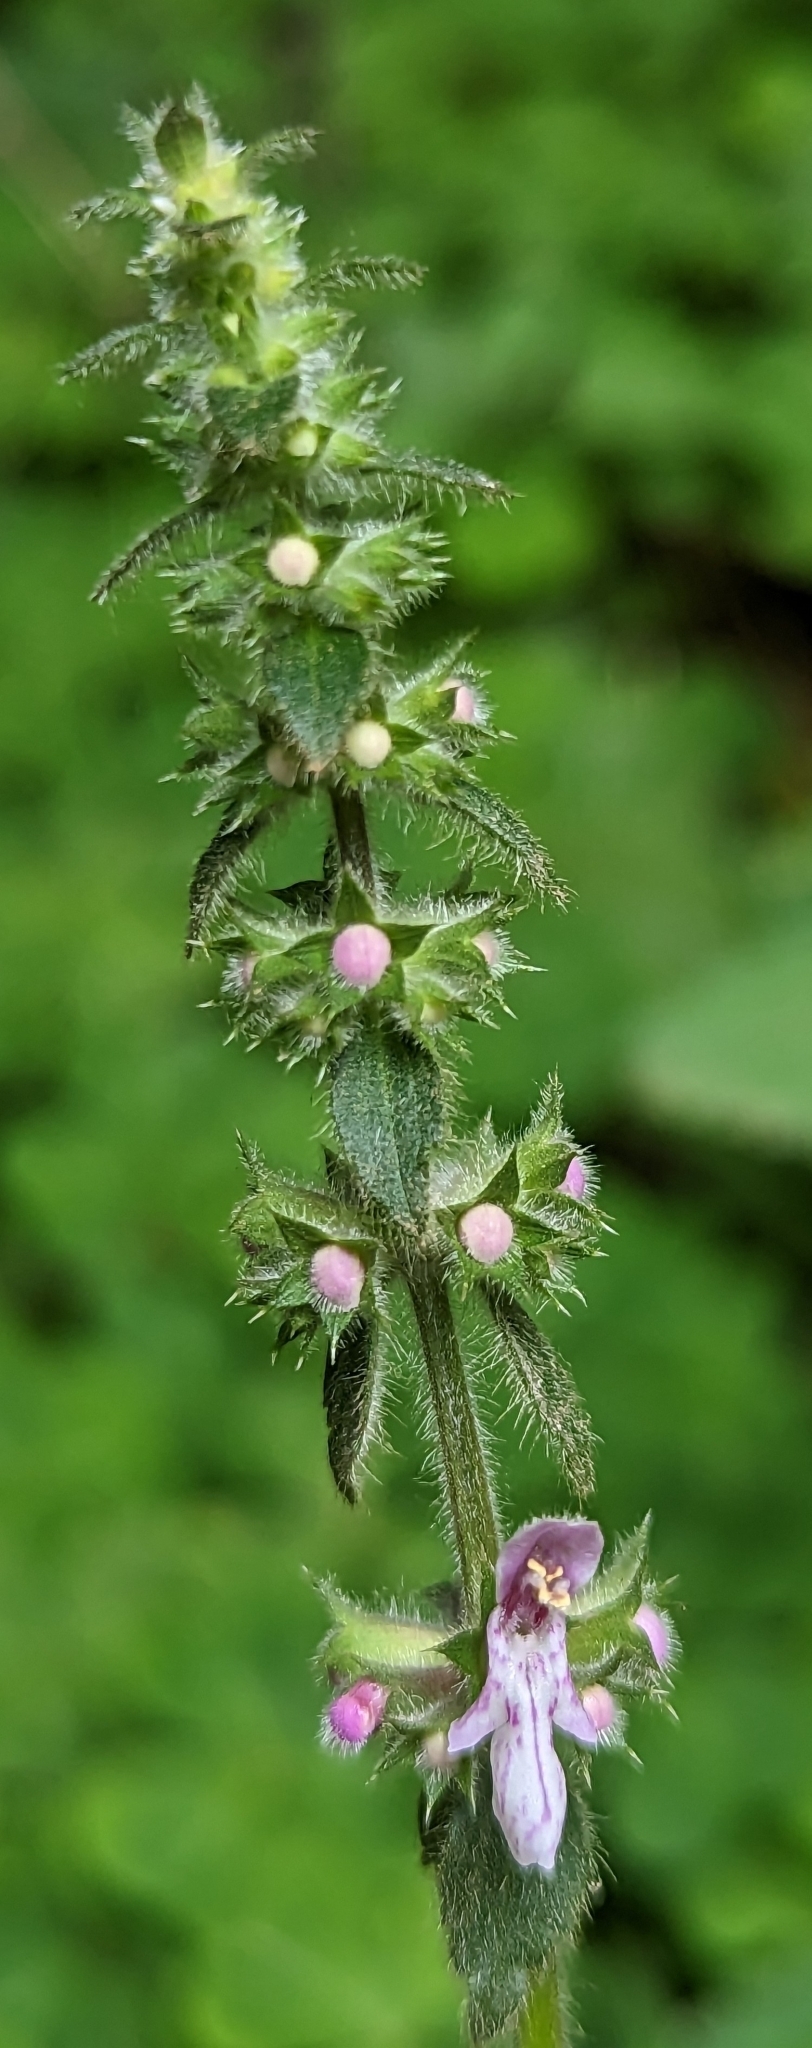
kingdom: Plantae
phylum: Tracheophyta
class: Magnoliopsida
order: Lamiales
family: Lamiaceae
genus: Stachys
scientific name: Stachys rigida
